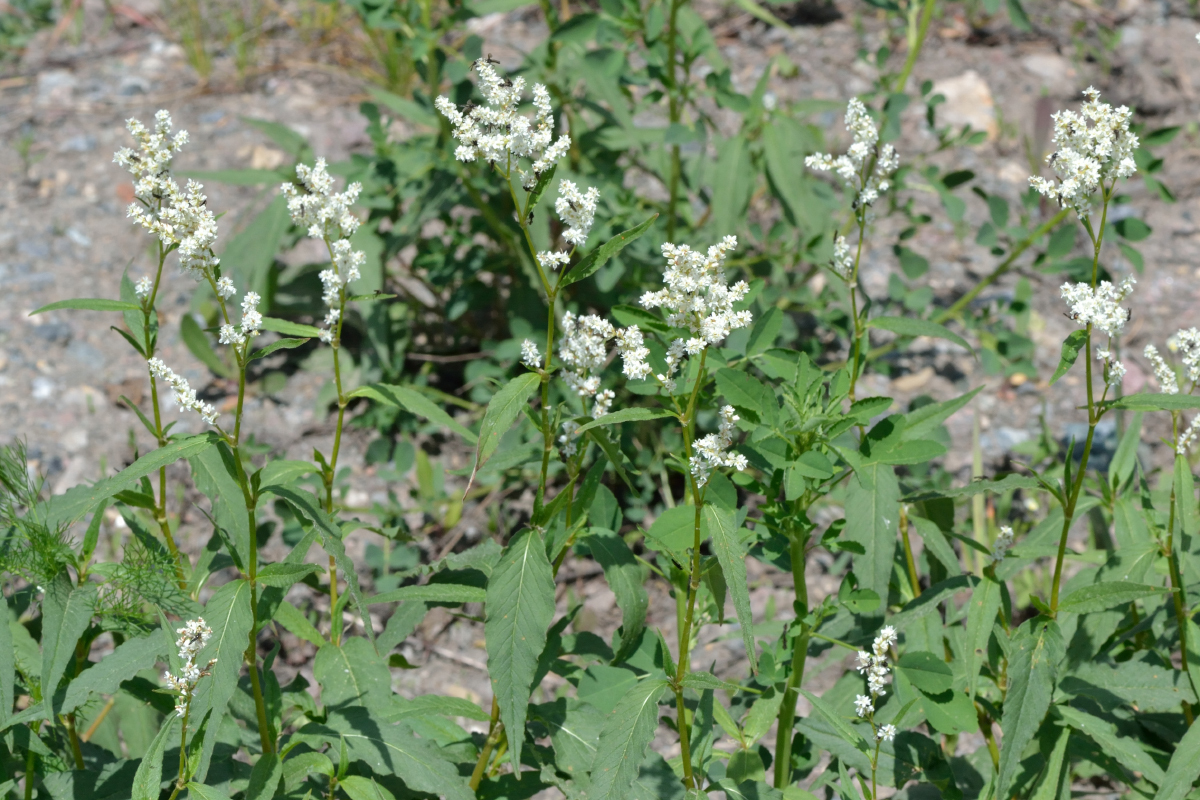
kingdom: Plantae
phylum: Tracheophyta
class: Magnoliopsida
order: Caryophyllales
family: Polygonaceae
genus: Koenigia
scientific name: Koenigia alpina
